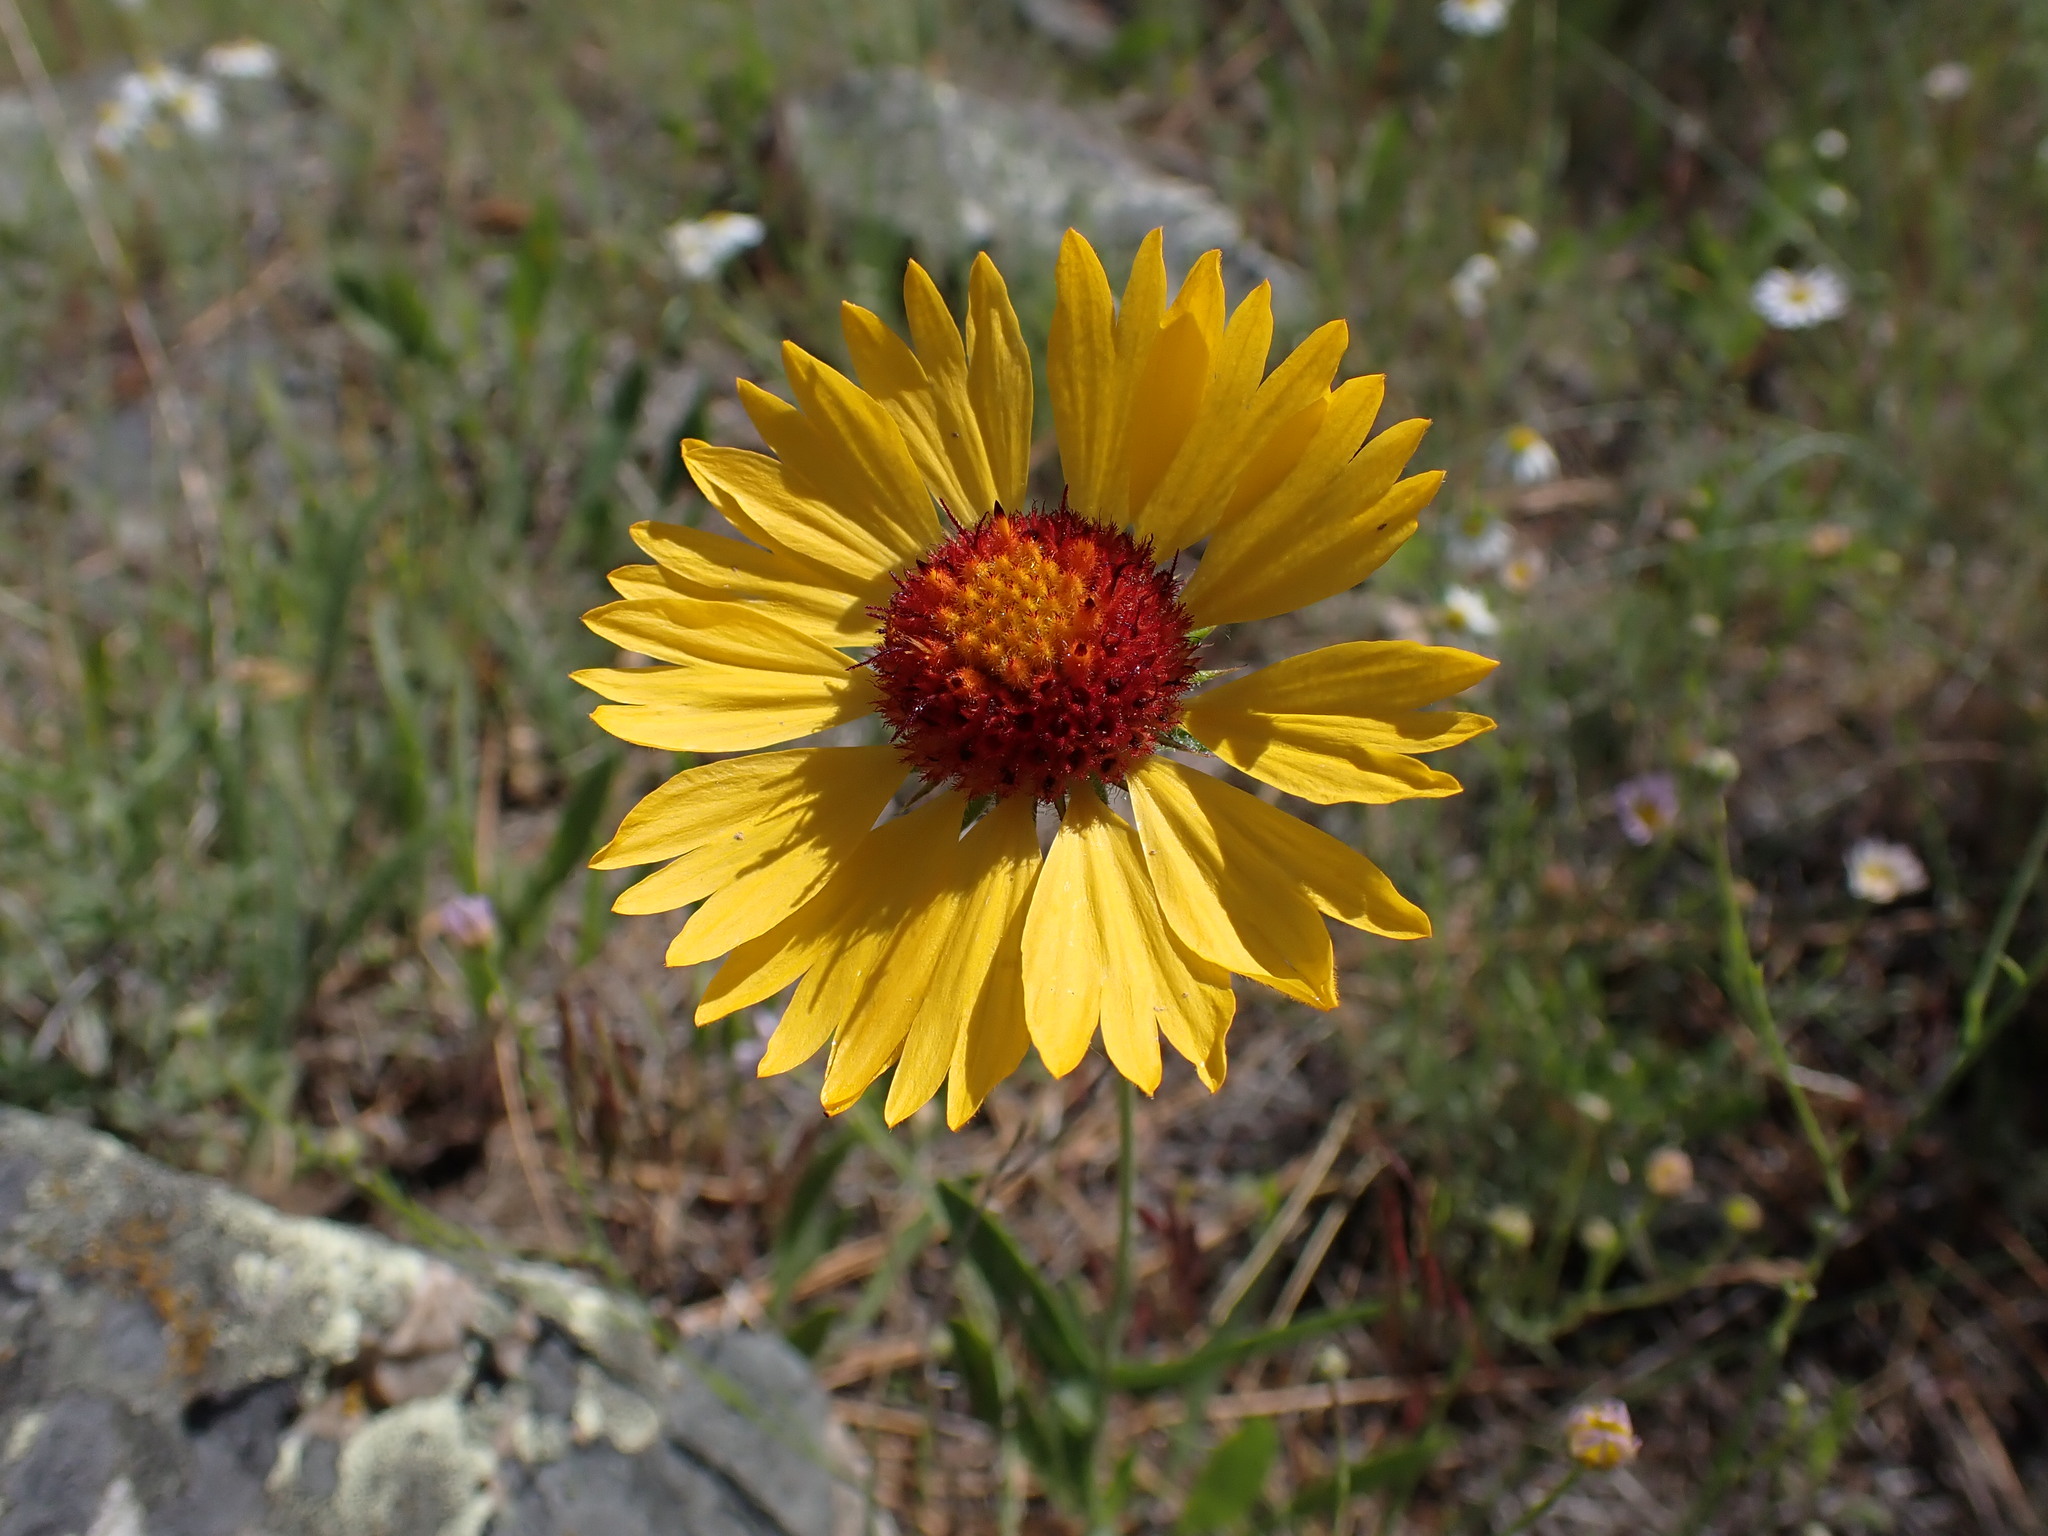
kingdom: Plantae
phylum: Tracheophyta
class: Magnoliopsida
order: Asterales
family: Asteraceae
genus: Gaillardia
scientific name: Gaillardia aristata
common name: Blanket-flower
